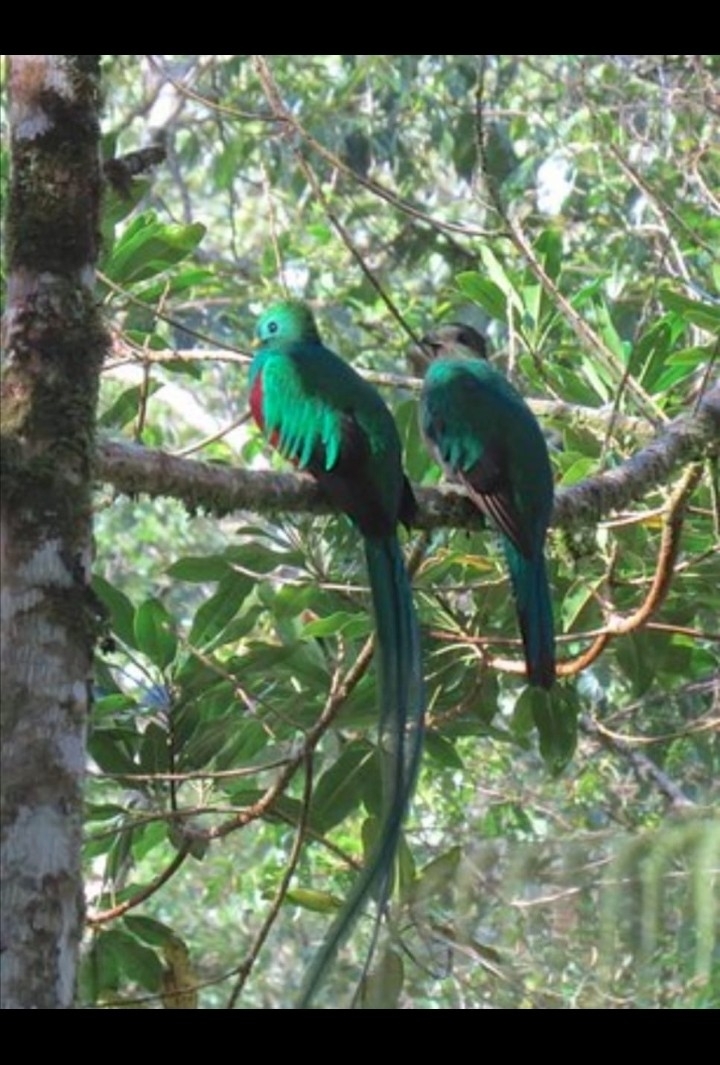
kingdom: Animalia
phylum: Chordata
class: Aves
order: Trogoniformes
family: Trogonidae
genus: Pharomachrus
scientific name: Pharomachrus mocinno
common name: Resplendent quetzal
